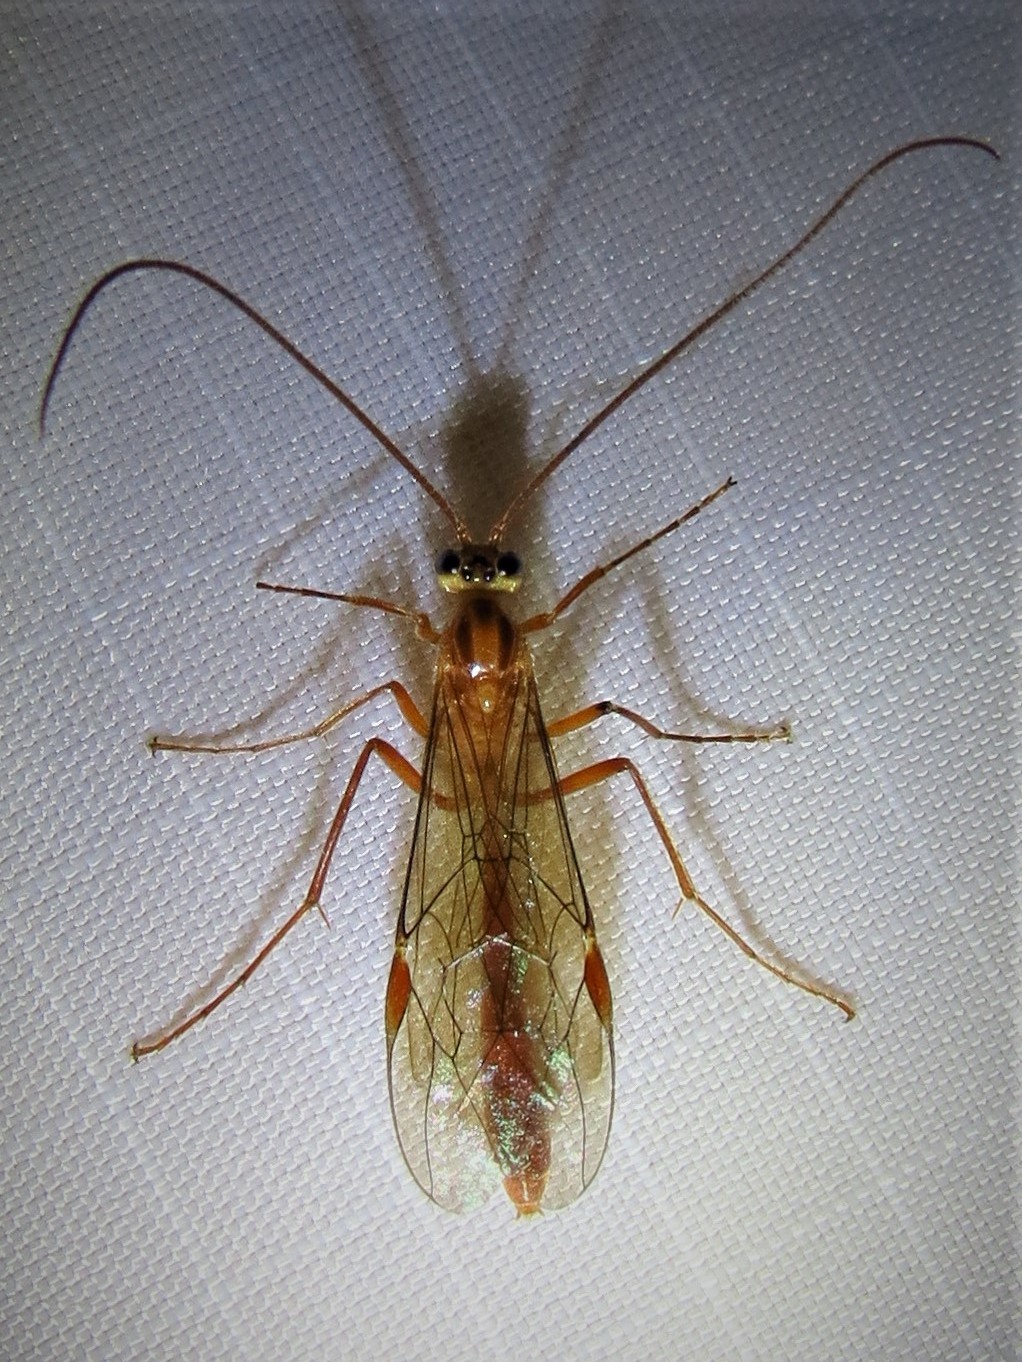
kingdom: Animalia
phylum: Arthropoda
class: Insecta
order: Hymenoptera
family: Ichneumonidae
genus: Ophion
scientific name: Ophion
